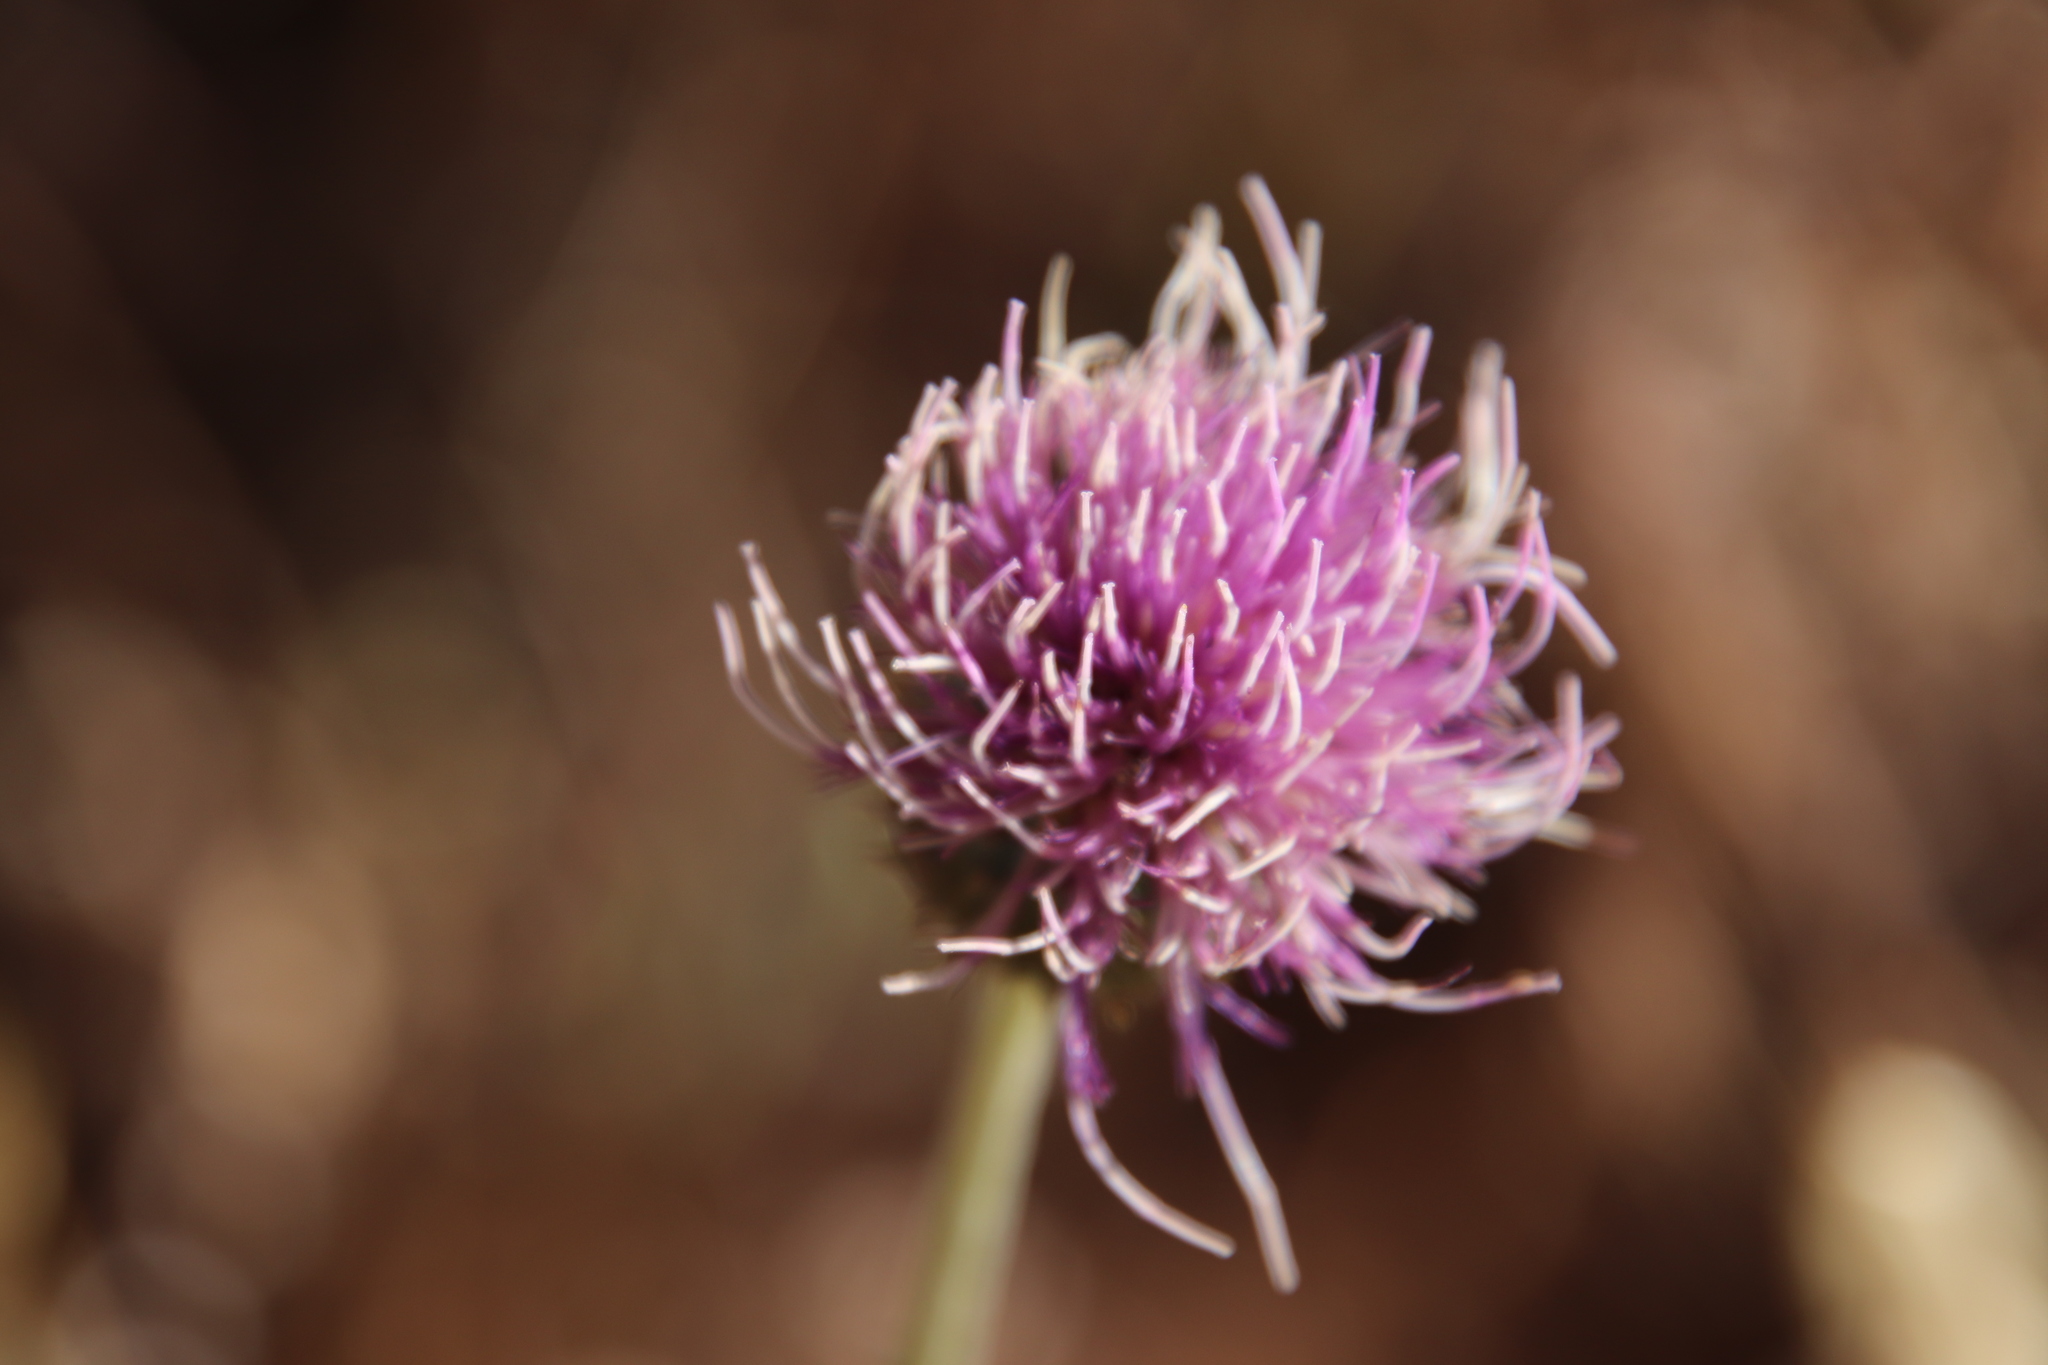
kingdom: Plantae
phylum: Tracheophyta
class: Magnoliopsida
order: Asterales
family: Asteraceae
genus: Cirsium
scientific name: Cirsium occidentale
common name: Western thistle
